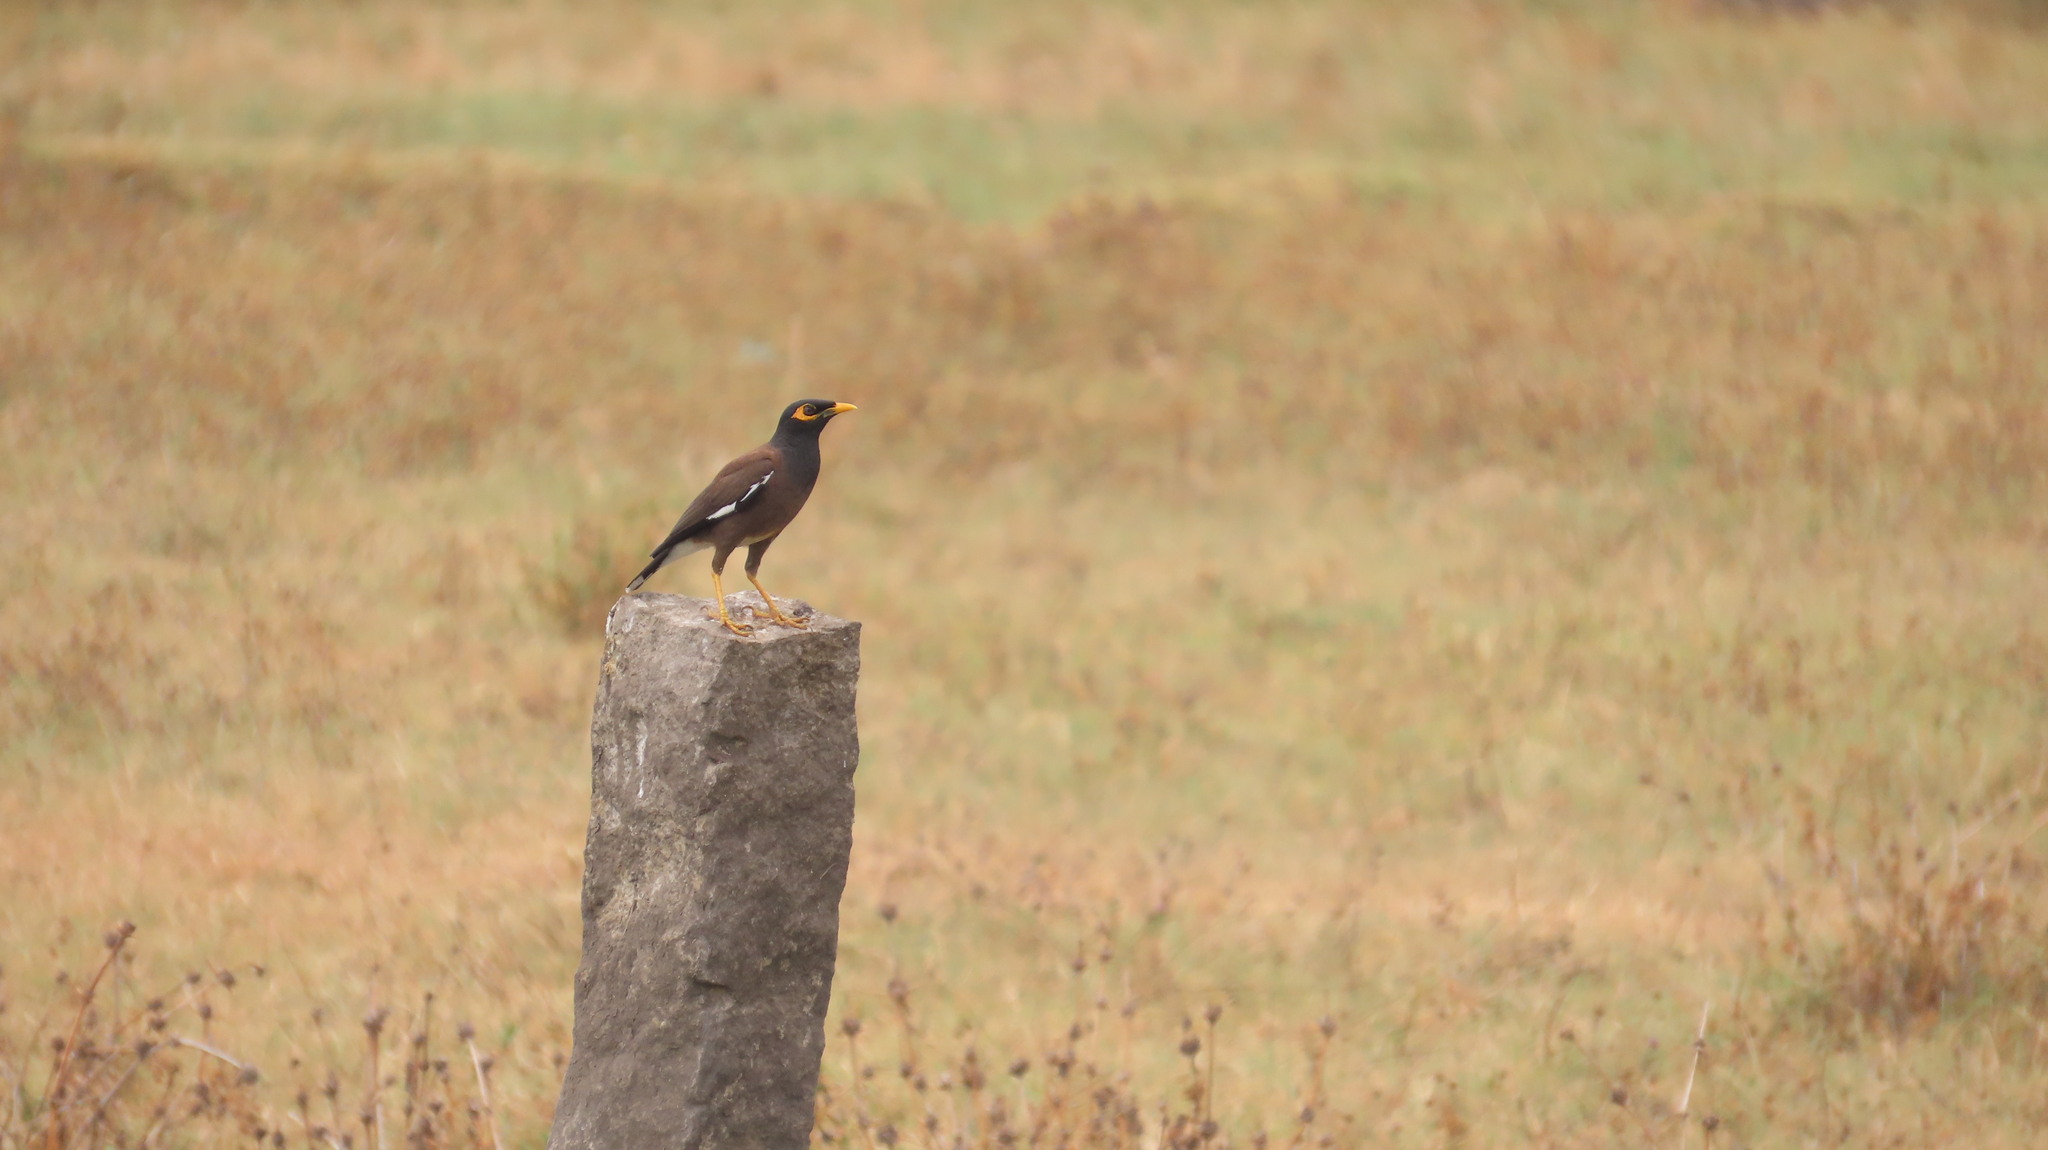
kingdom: Animalia
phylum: Chordata
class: Aves
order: Passeriformes
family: Sturnidae
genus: Acridotheres
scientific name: Acridotheres tristis
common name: Common myna
